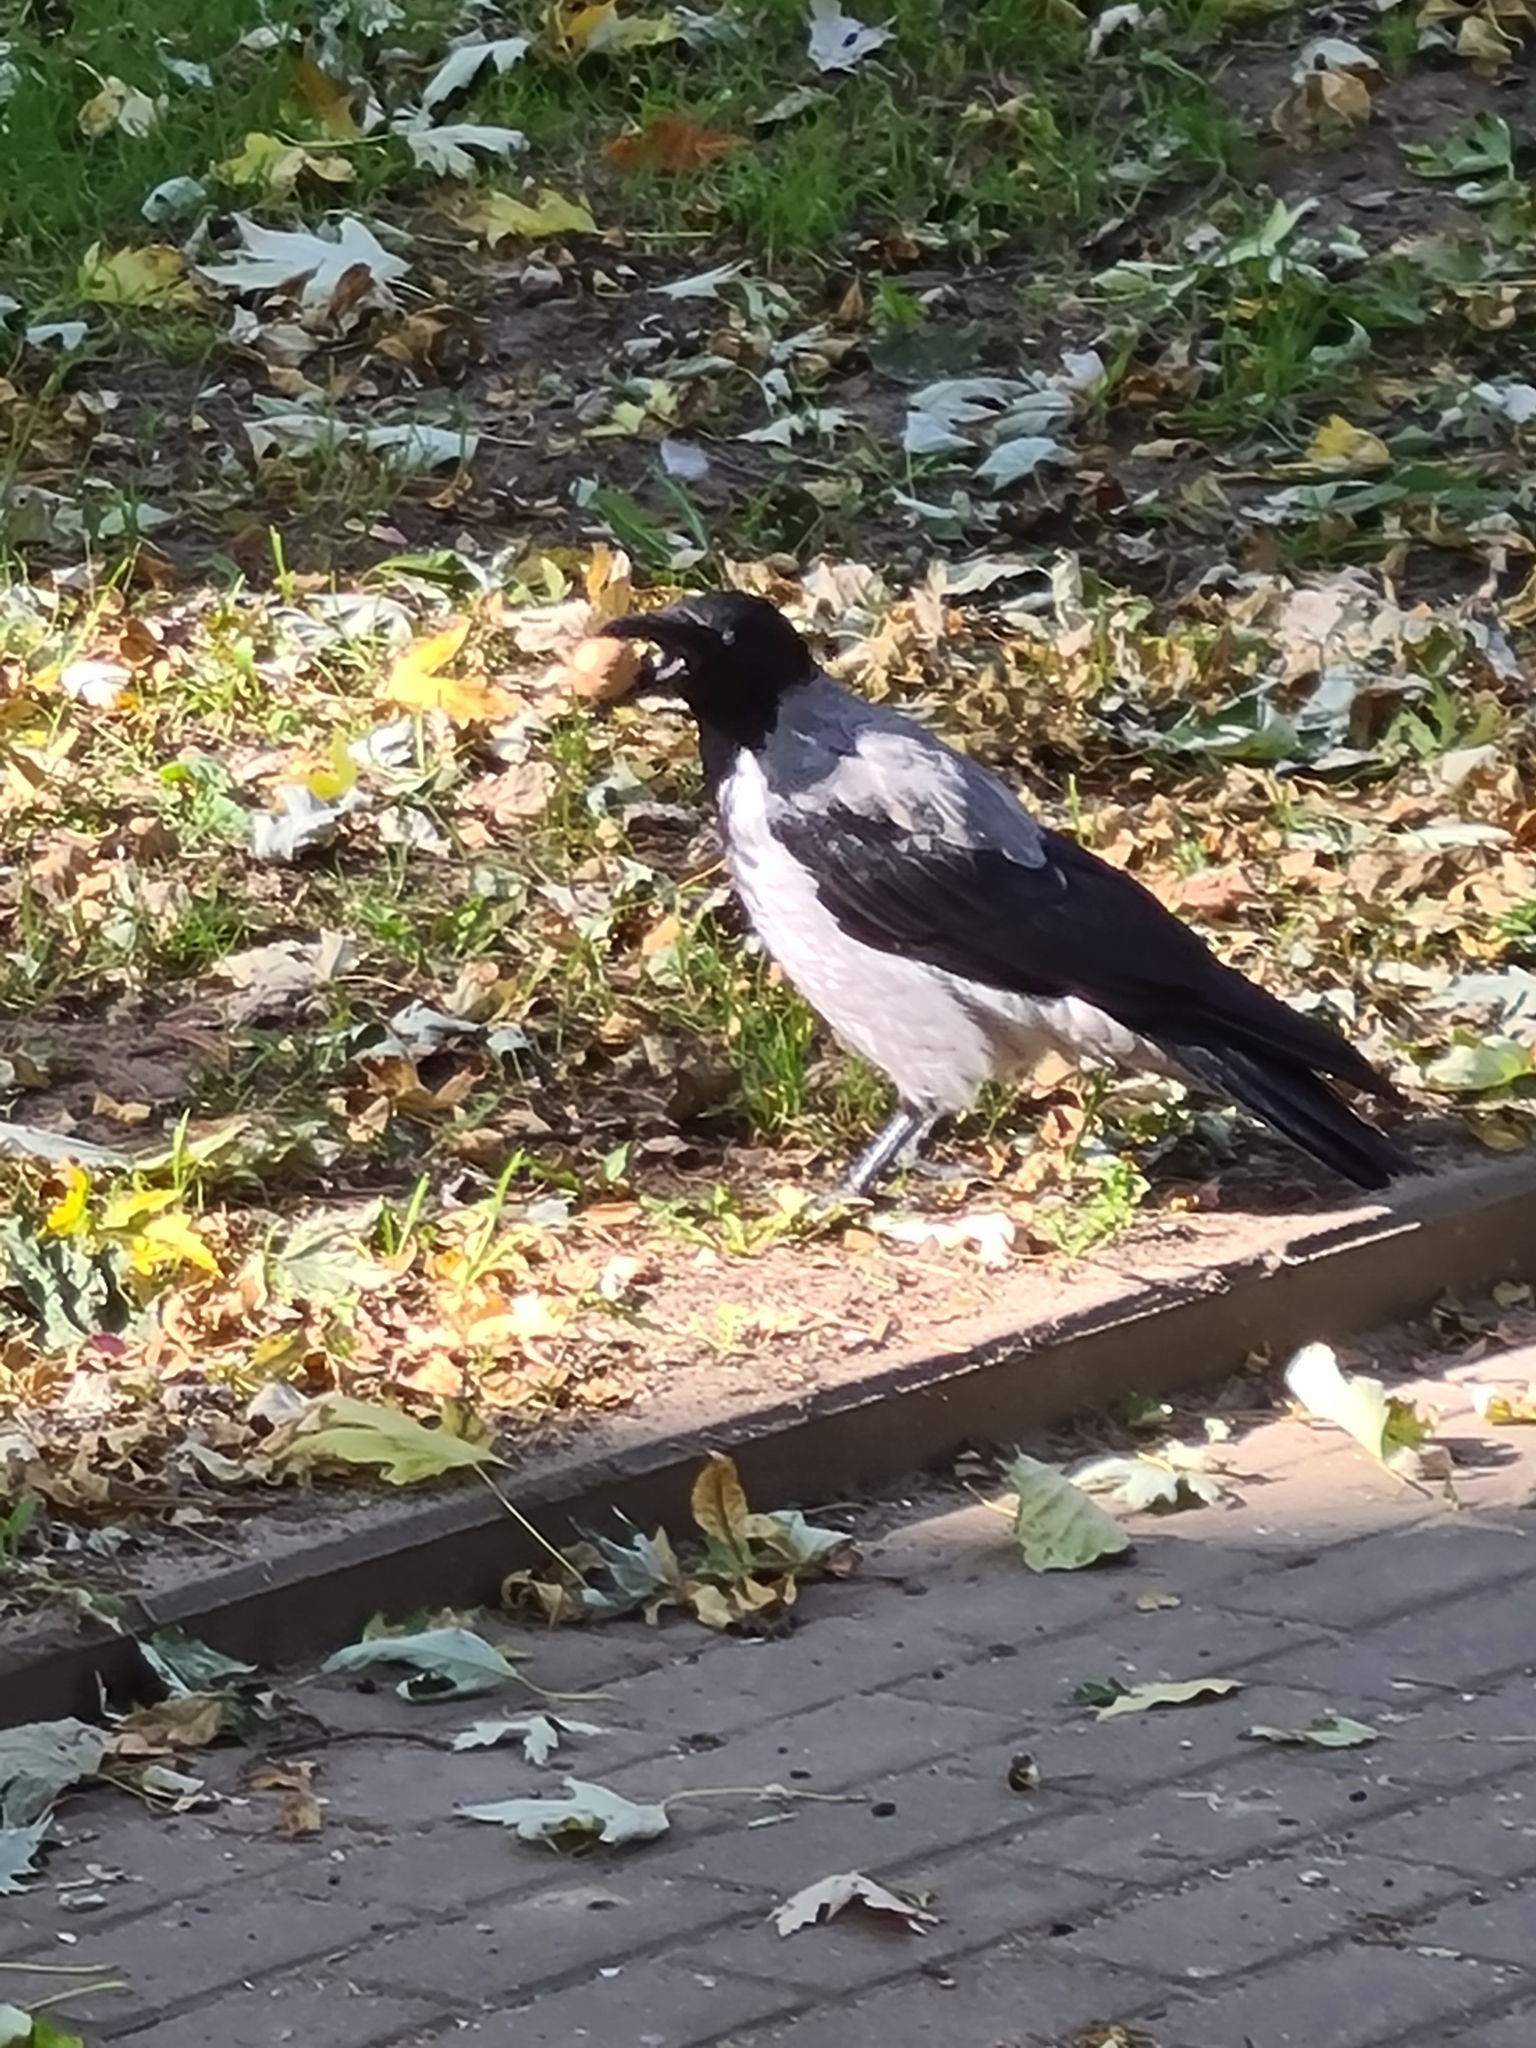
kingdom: Animalia
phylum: Chordata
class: Aves
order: Passeriformes
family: Corvidae
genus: Corvus
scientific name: Corvus cornix
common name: Hooded crow
